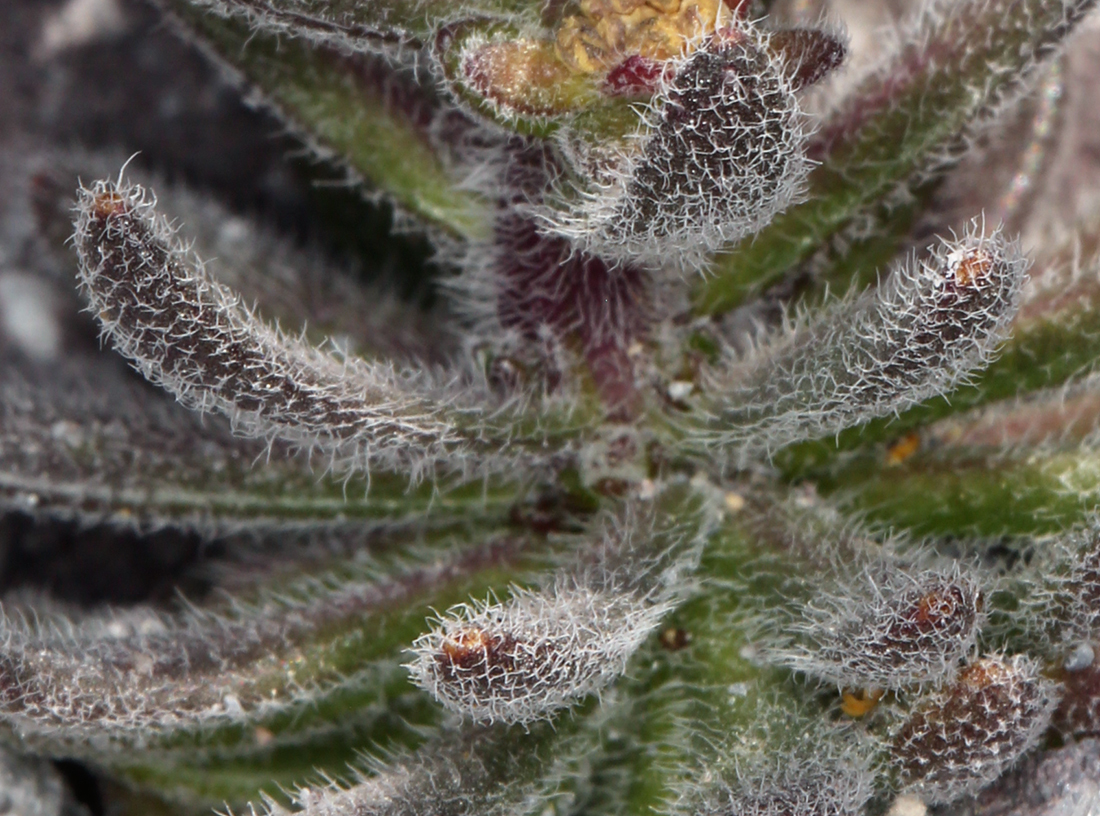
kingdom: Plantae
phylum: Tracheophyta
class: Magnoliopsida
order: Brassicales
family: Brassicaceae
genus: Draba
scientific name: Draba aureola
